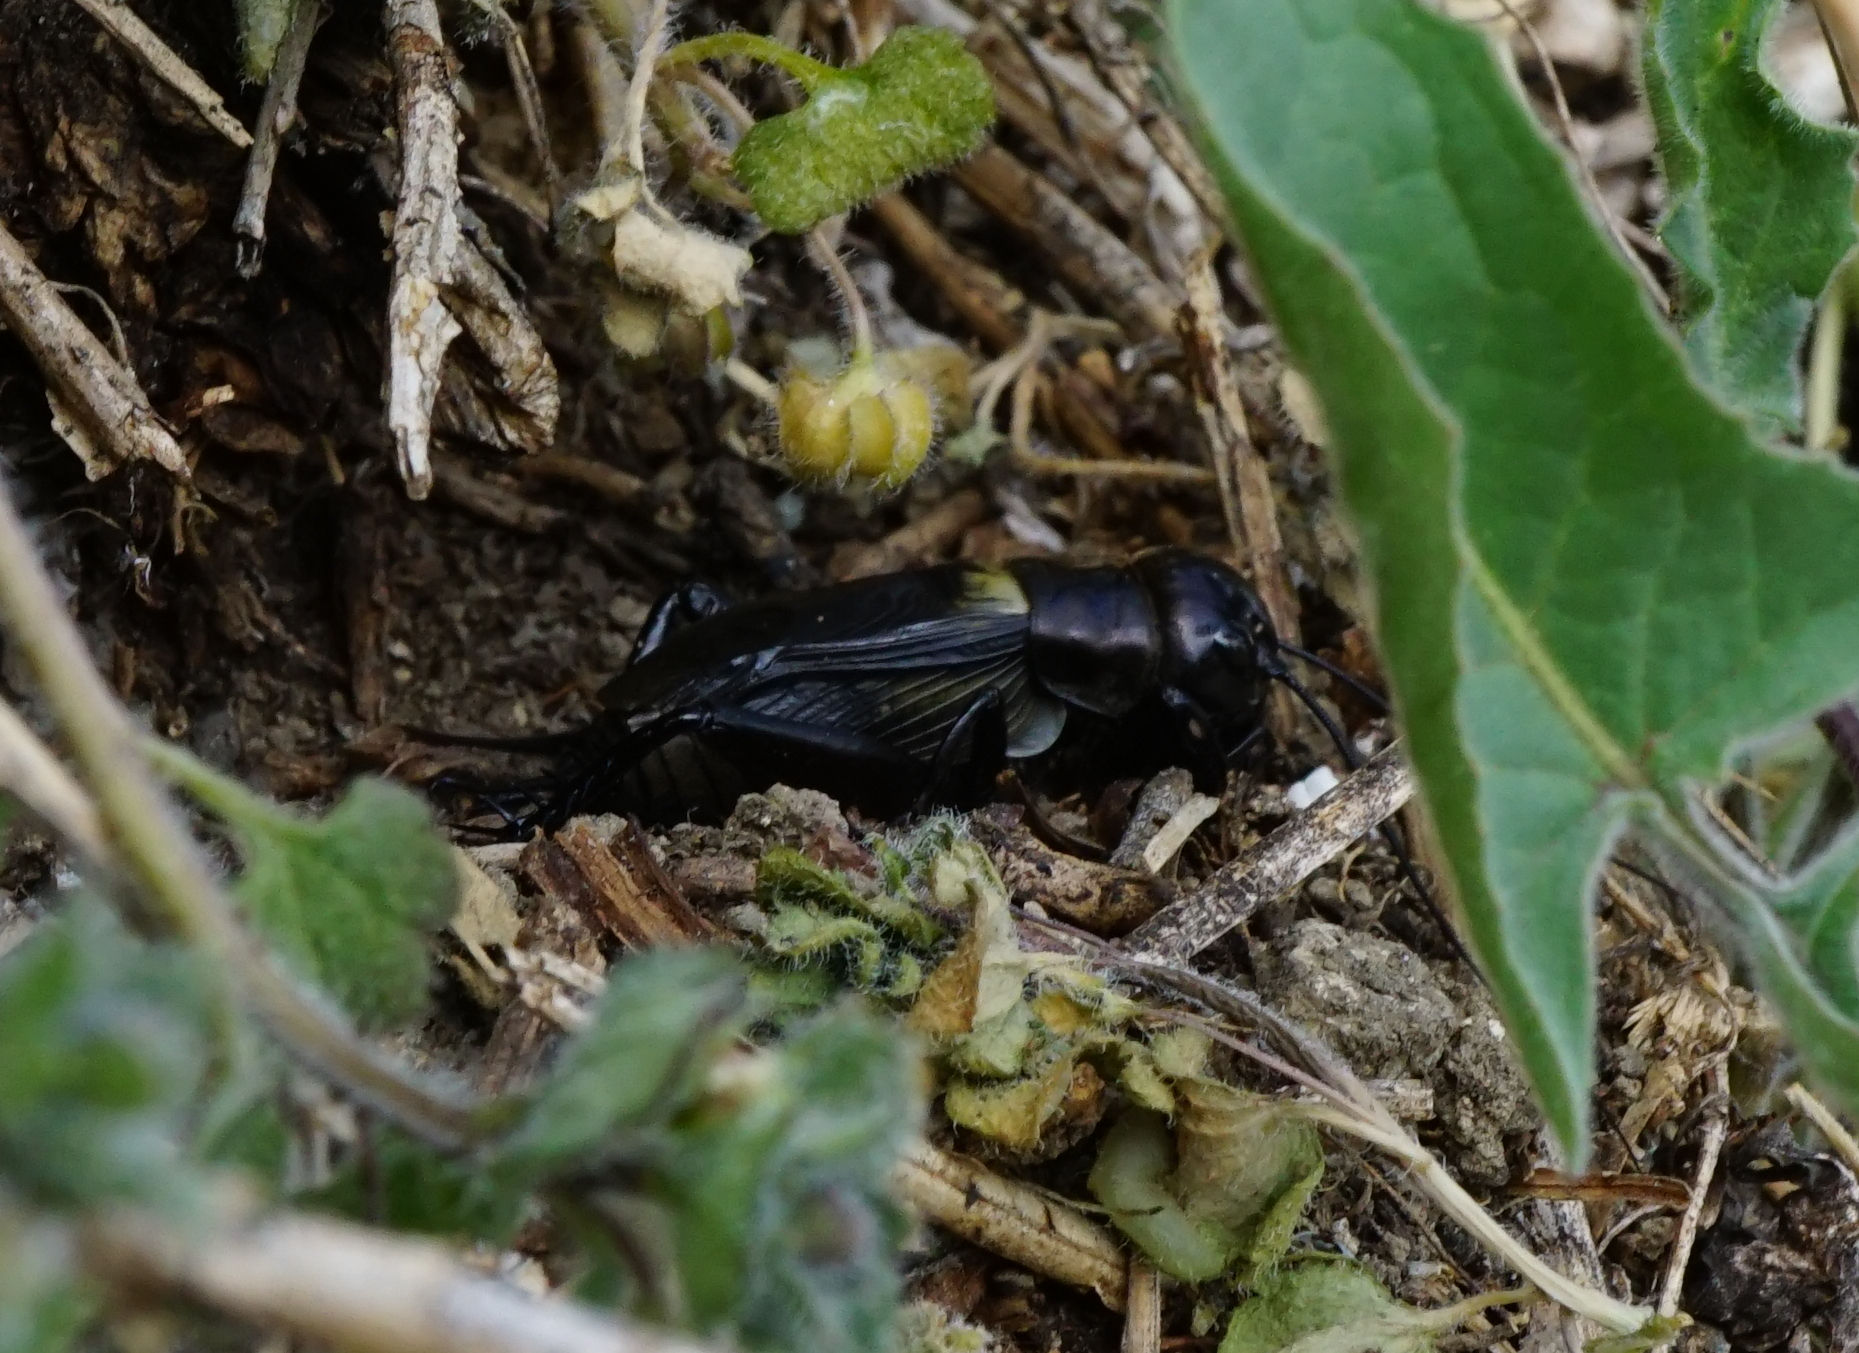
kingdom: Animalia
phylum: Arthropoda
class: Insecta
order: Orthoptera
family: Gryllidae
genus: Gryllus
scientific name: Gryllus campestris
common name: Field cricket
